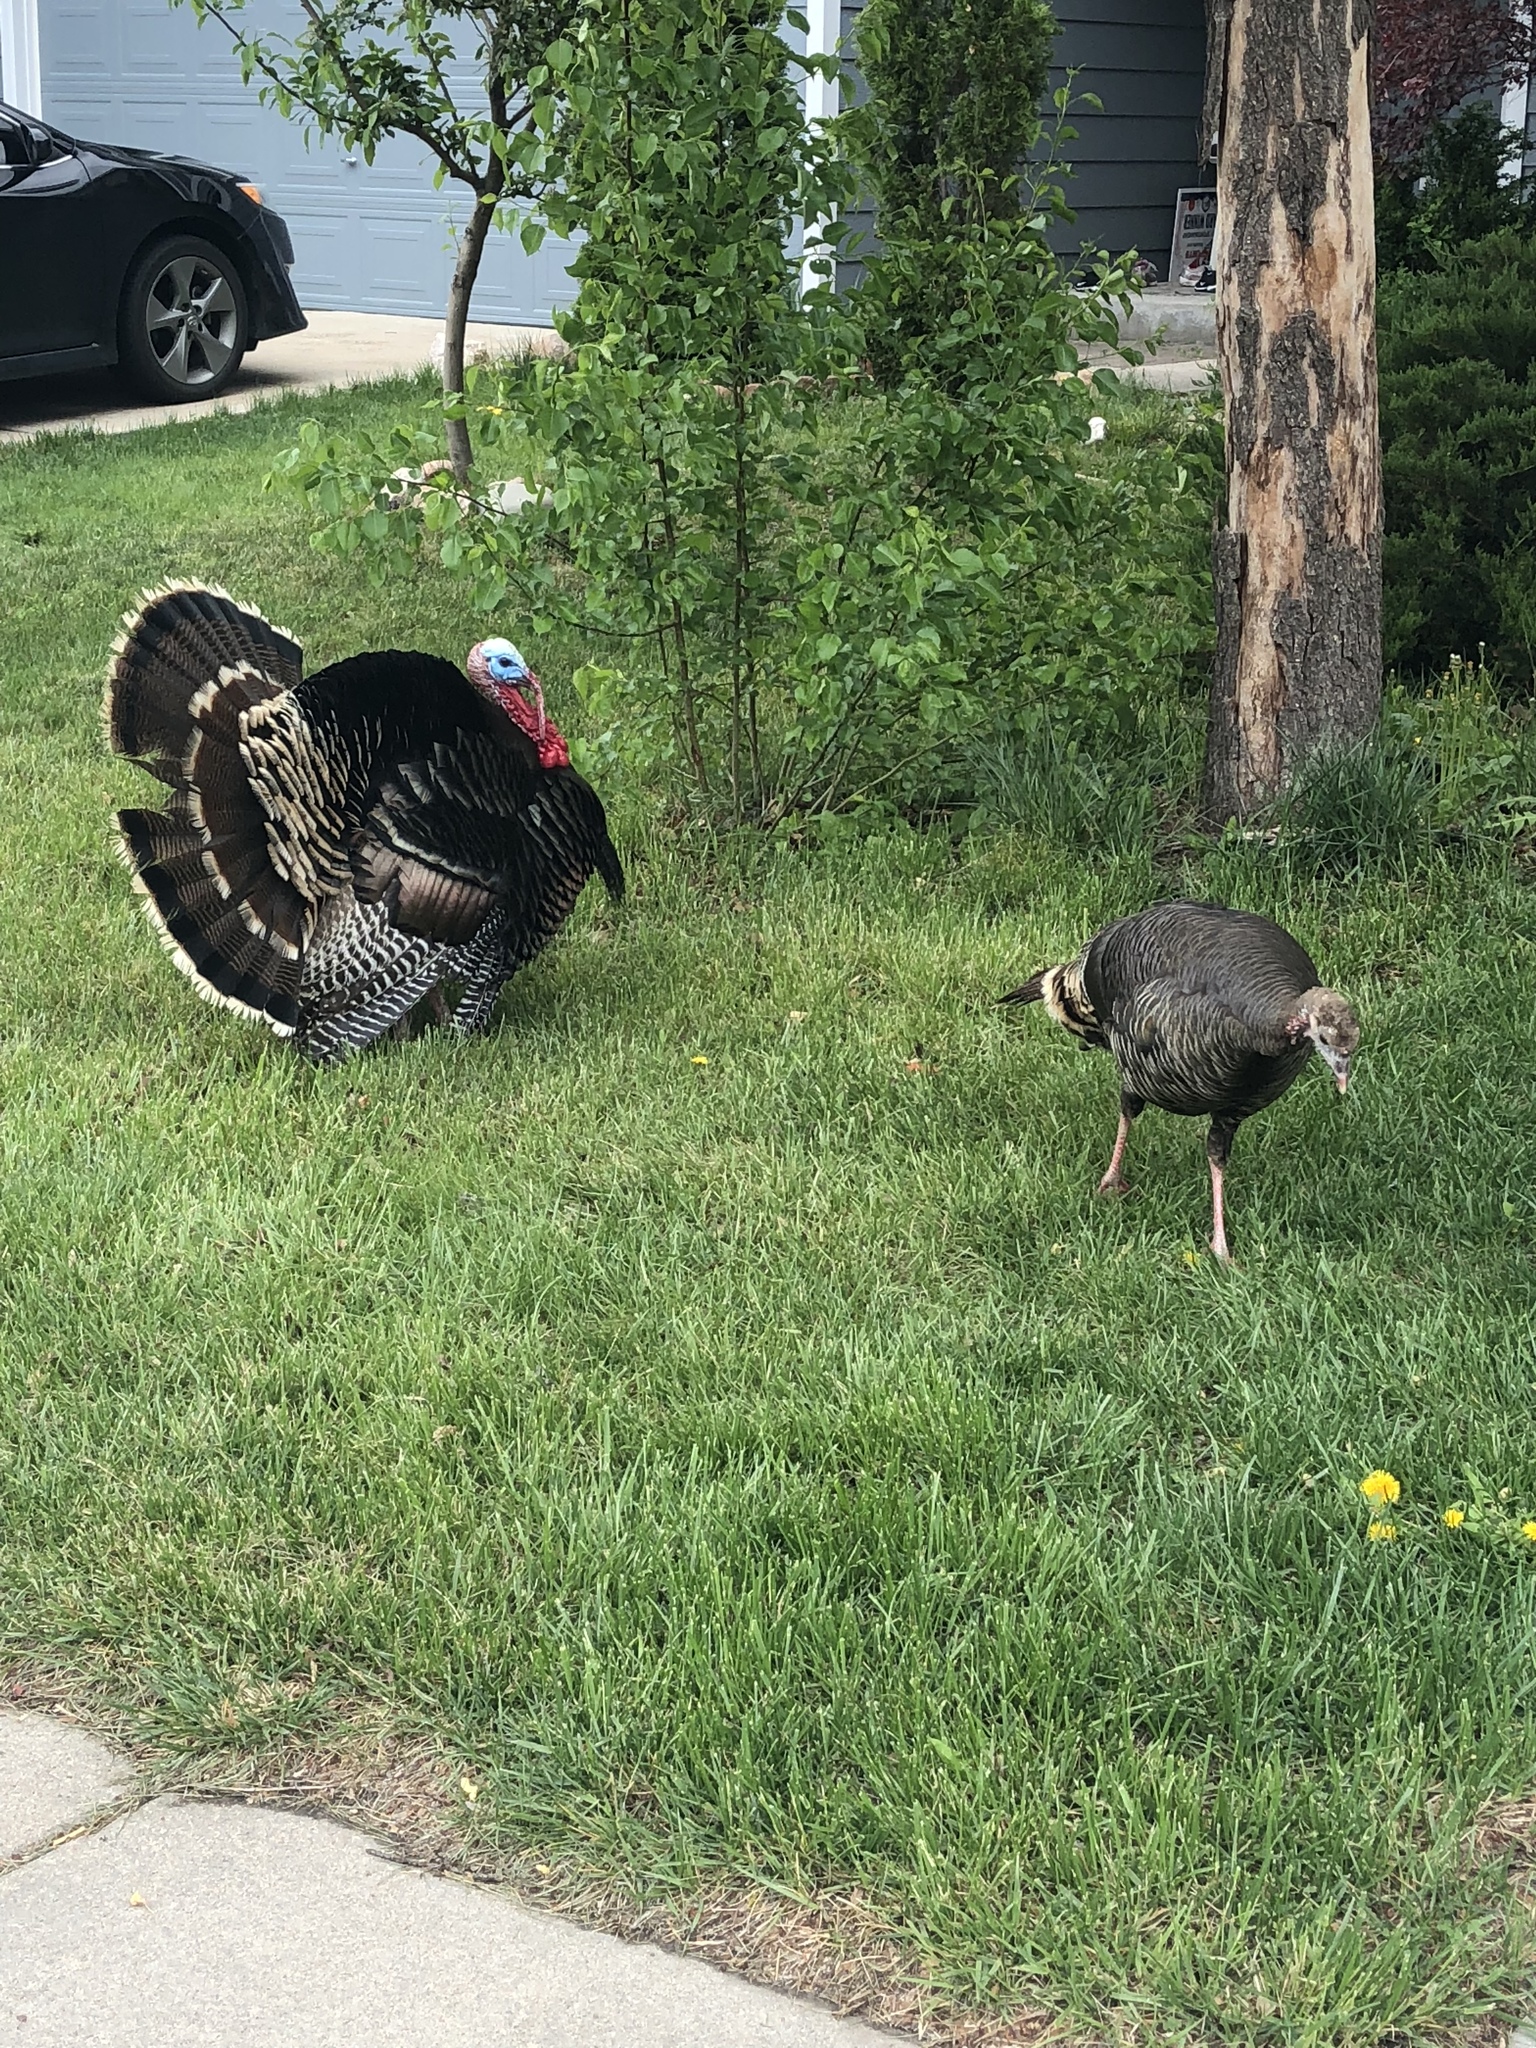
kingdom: Animalia
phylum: Chordata
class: Aves
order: Galliformes
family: Phasianidae
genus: Meleagris
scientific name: Meleagris gallopavo
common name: Wild turkey
